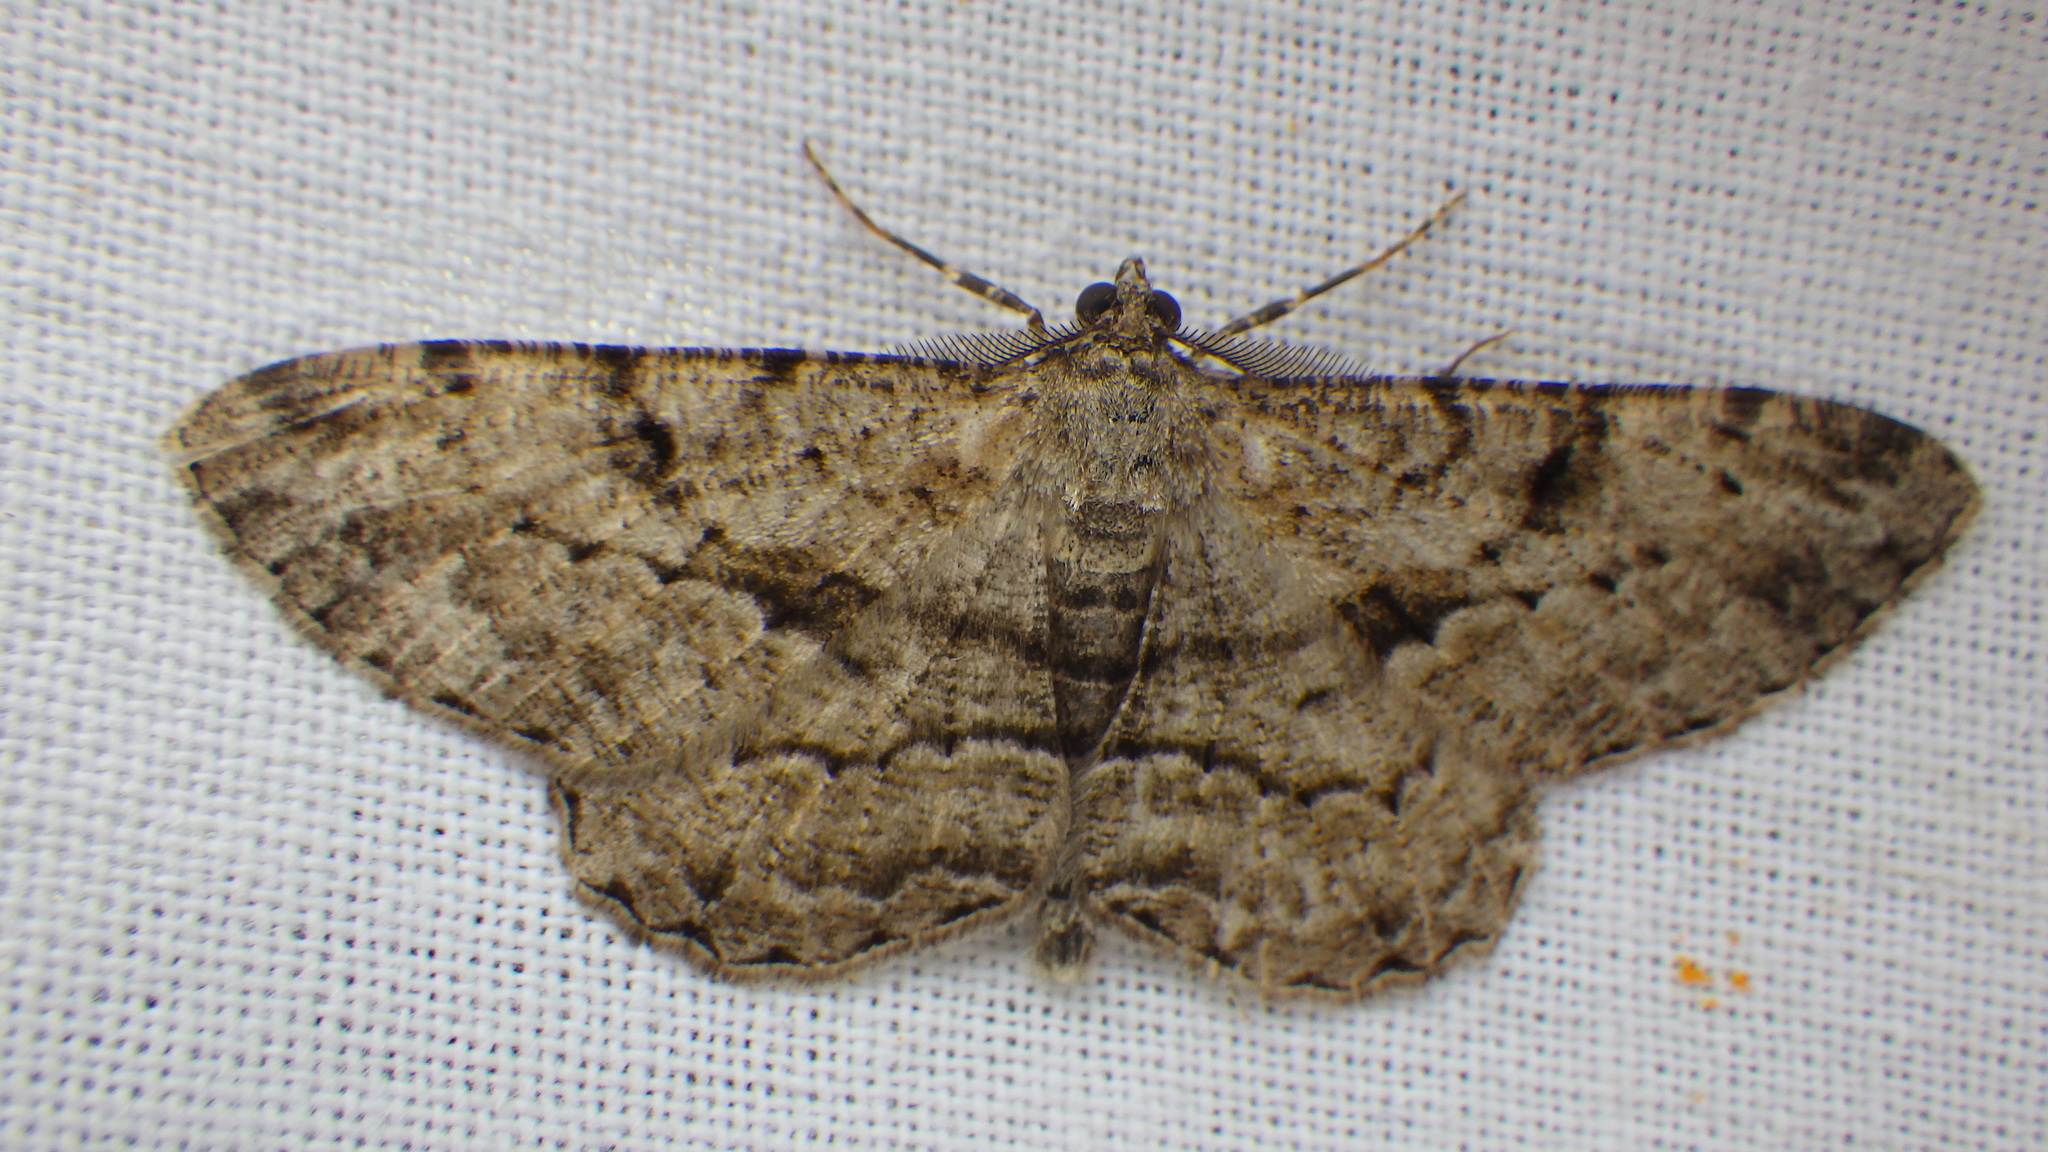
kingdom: Animalia
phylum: Arthropoda
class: Insecta
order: Lepidoptera
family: Geometridae
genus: Peribatodes
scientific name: Peribatodes rhomboidaria
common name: Willow beauty
